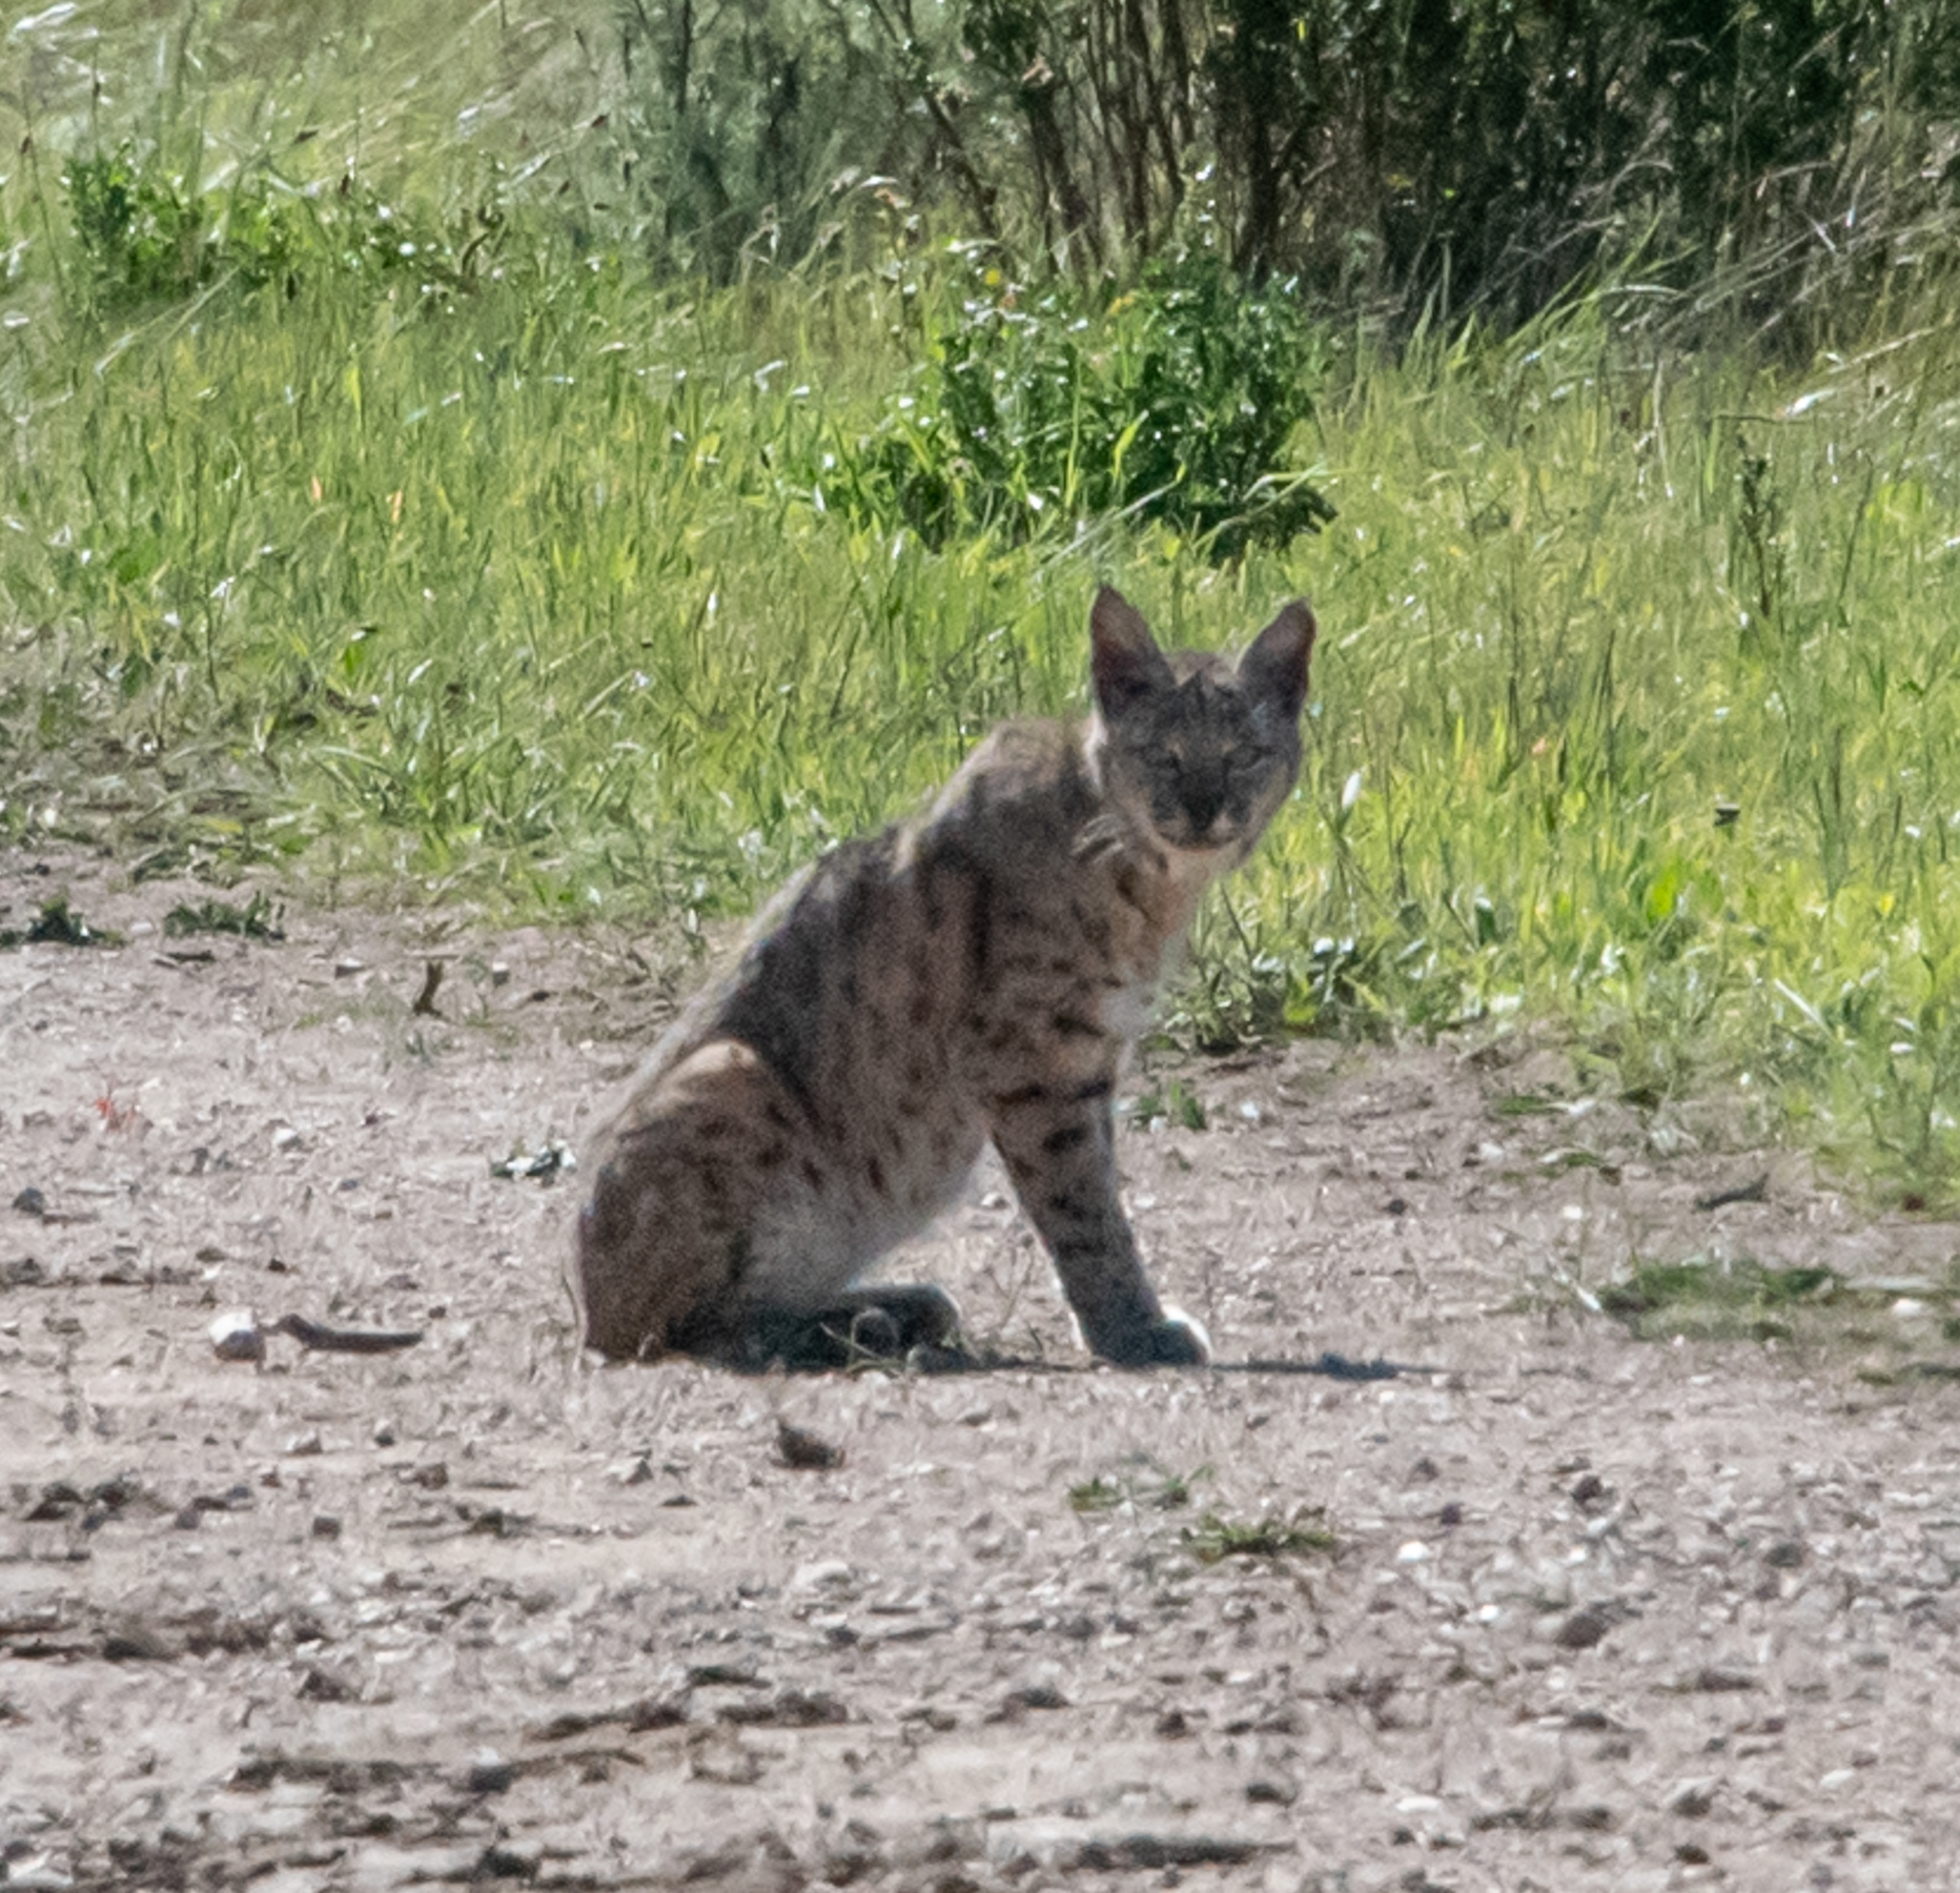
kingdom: Animalia
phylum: Chordata
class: Mammalia
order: Carnivora
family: Felidae
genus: Lynx
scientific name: Lynx rufus
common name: Bobcat
